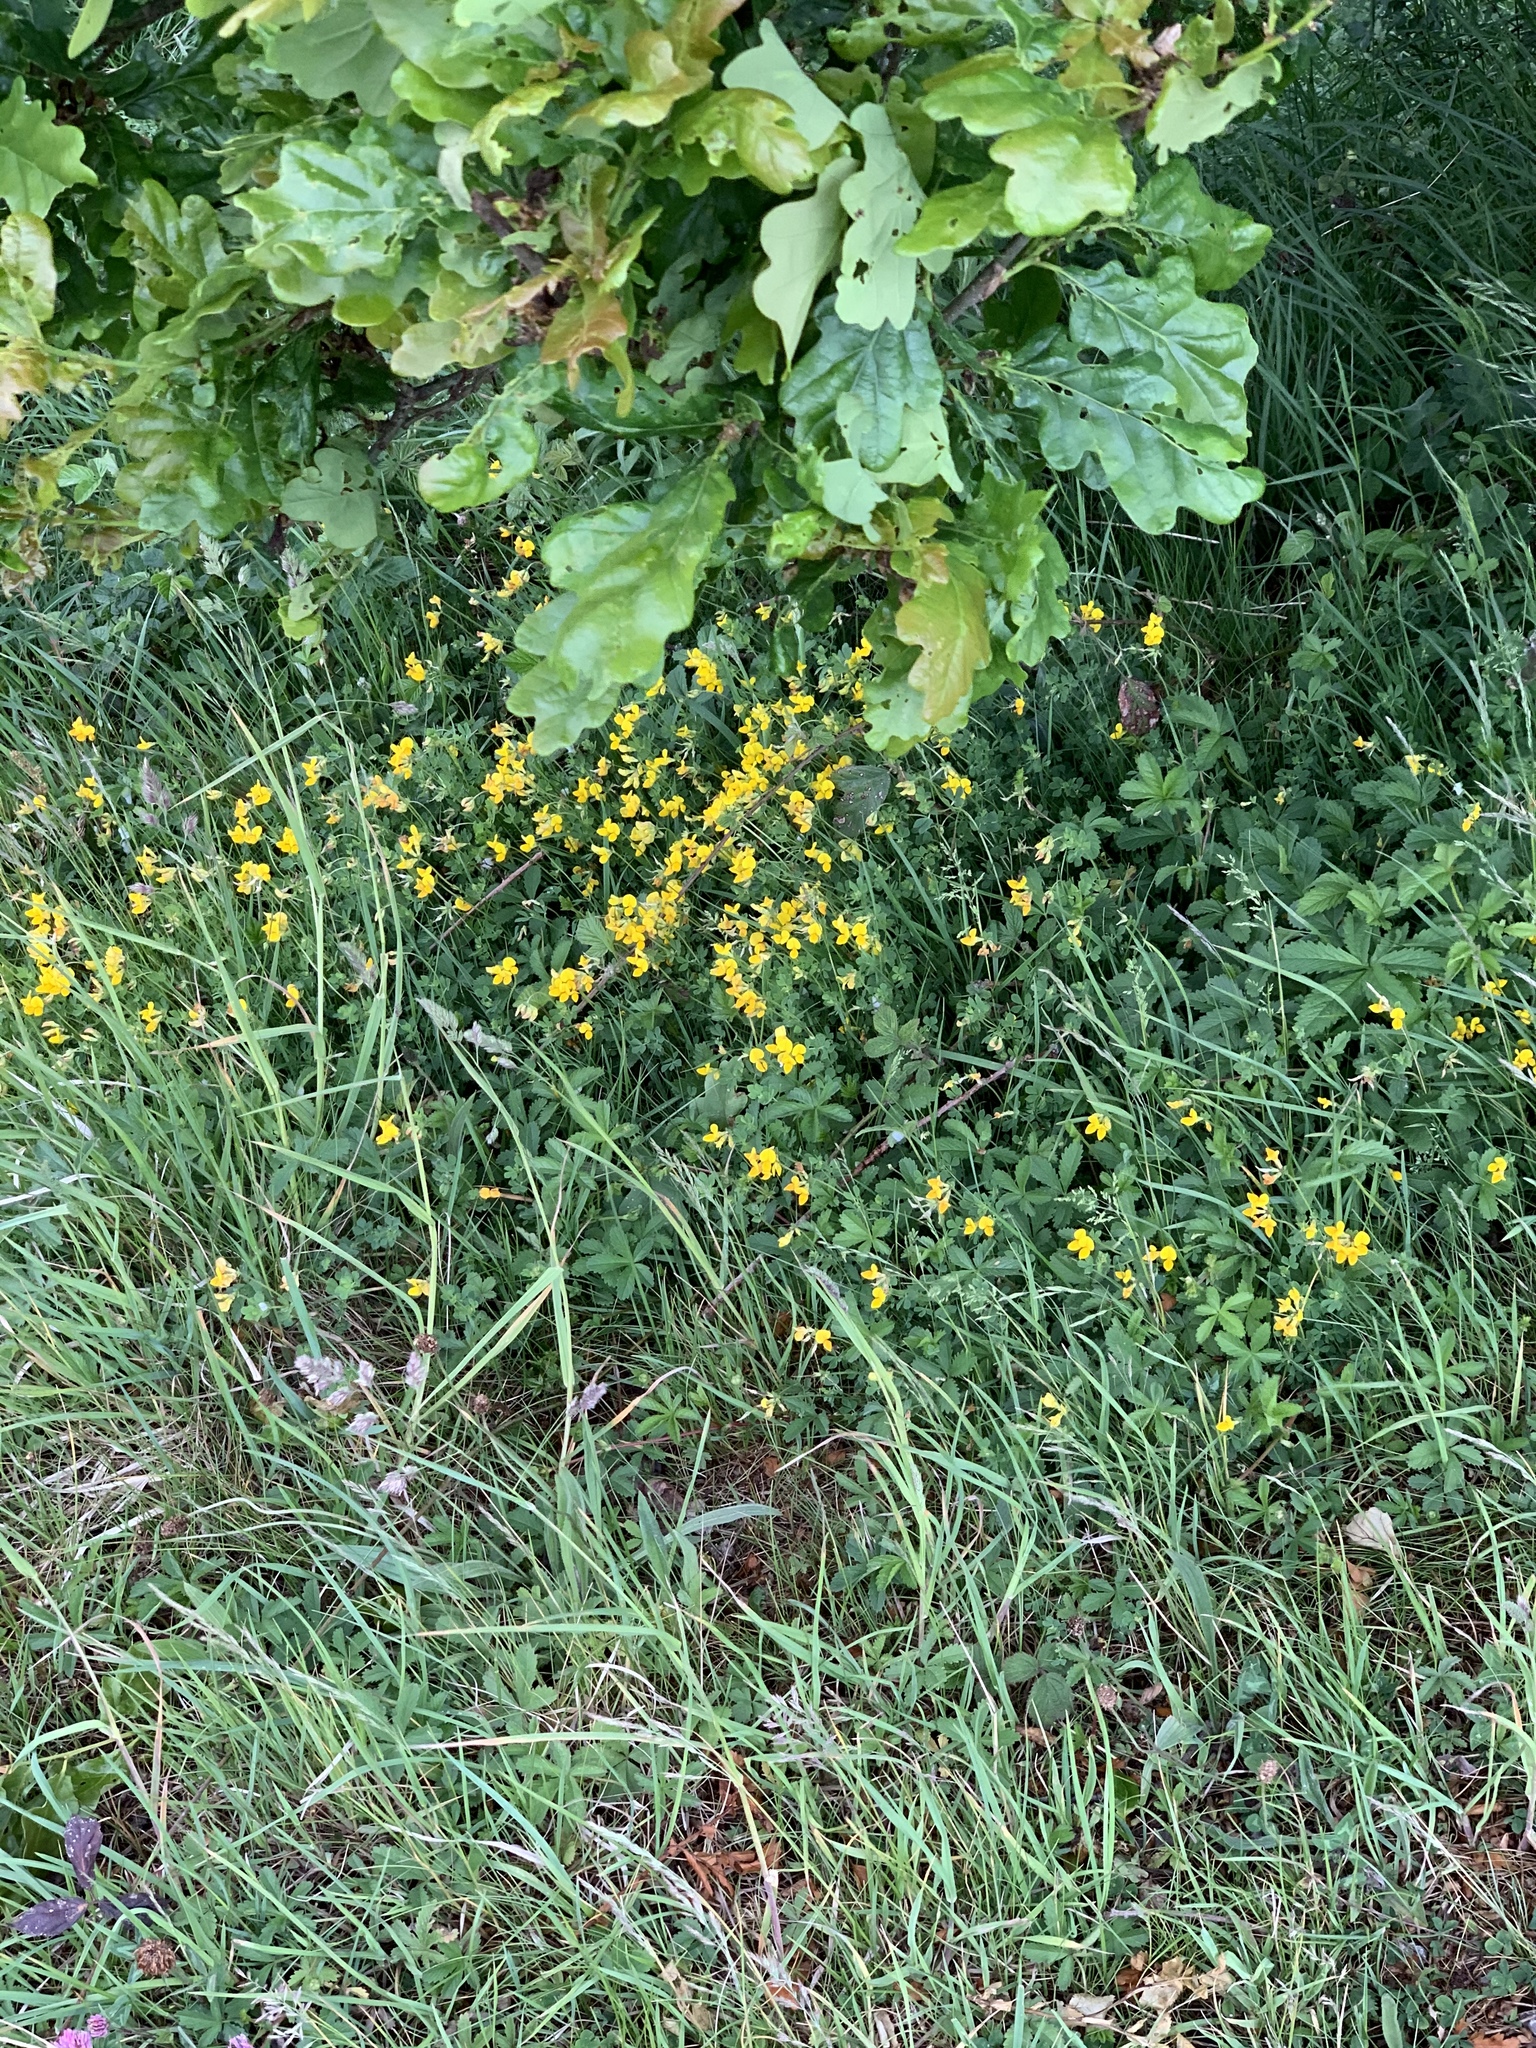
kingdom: Plantae
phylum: Tracheophyta
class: Magnoliopsida
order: Fabales
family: Fabaceae
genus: Lotus
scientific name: Lotus corniculatus
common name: Common bird's-foot-trefoil
